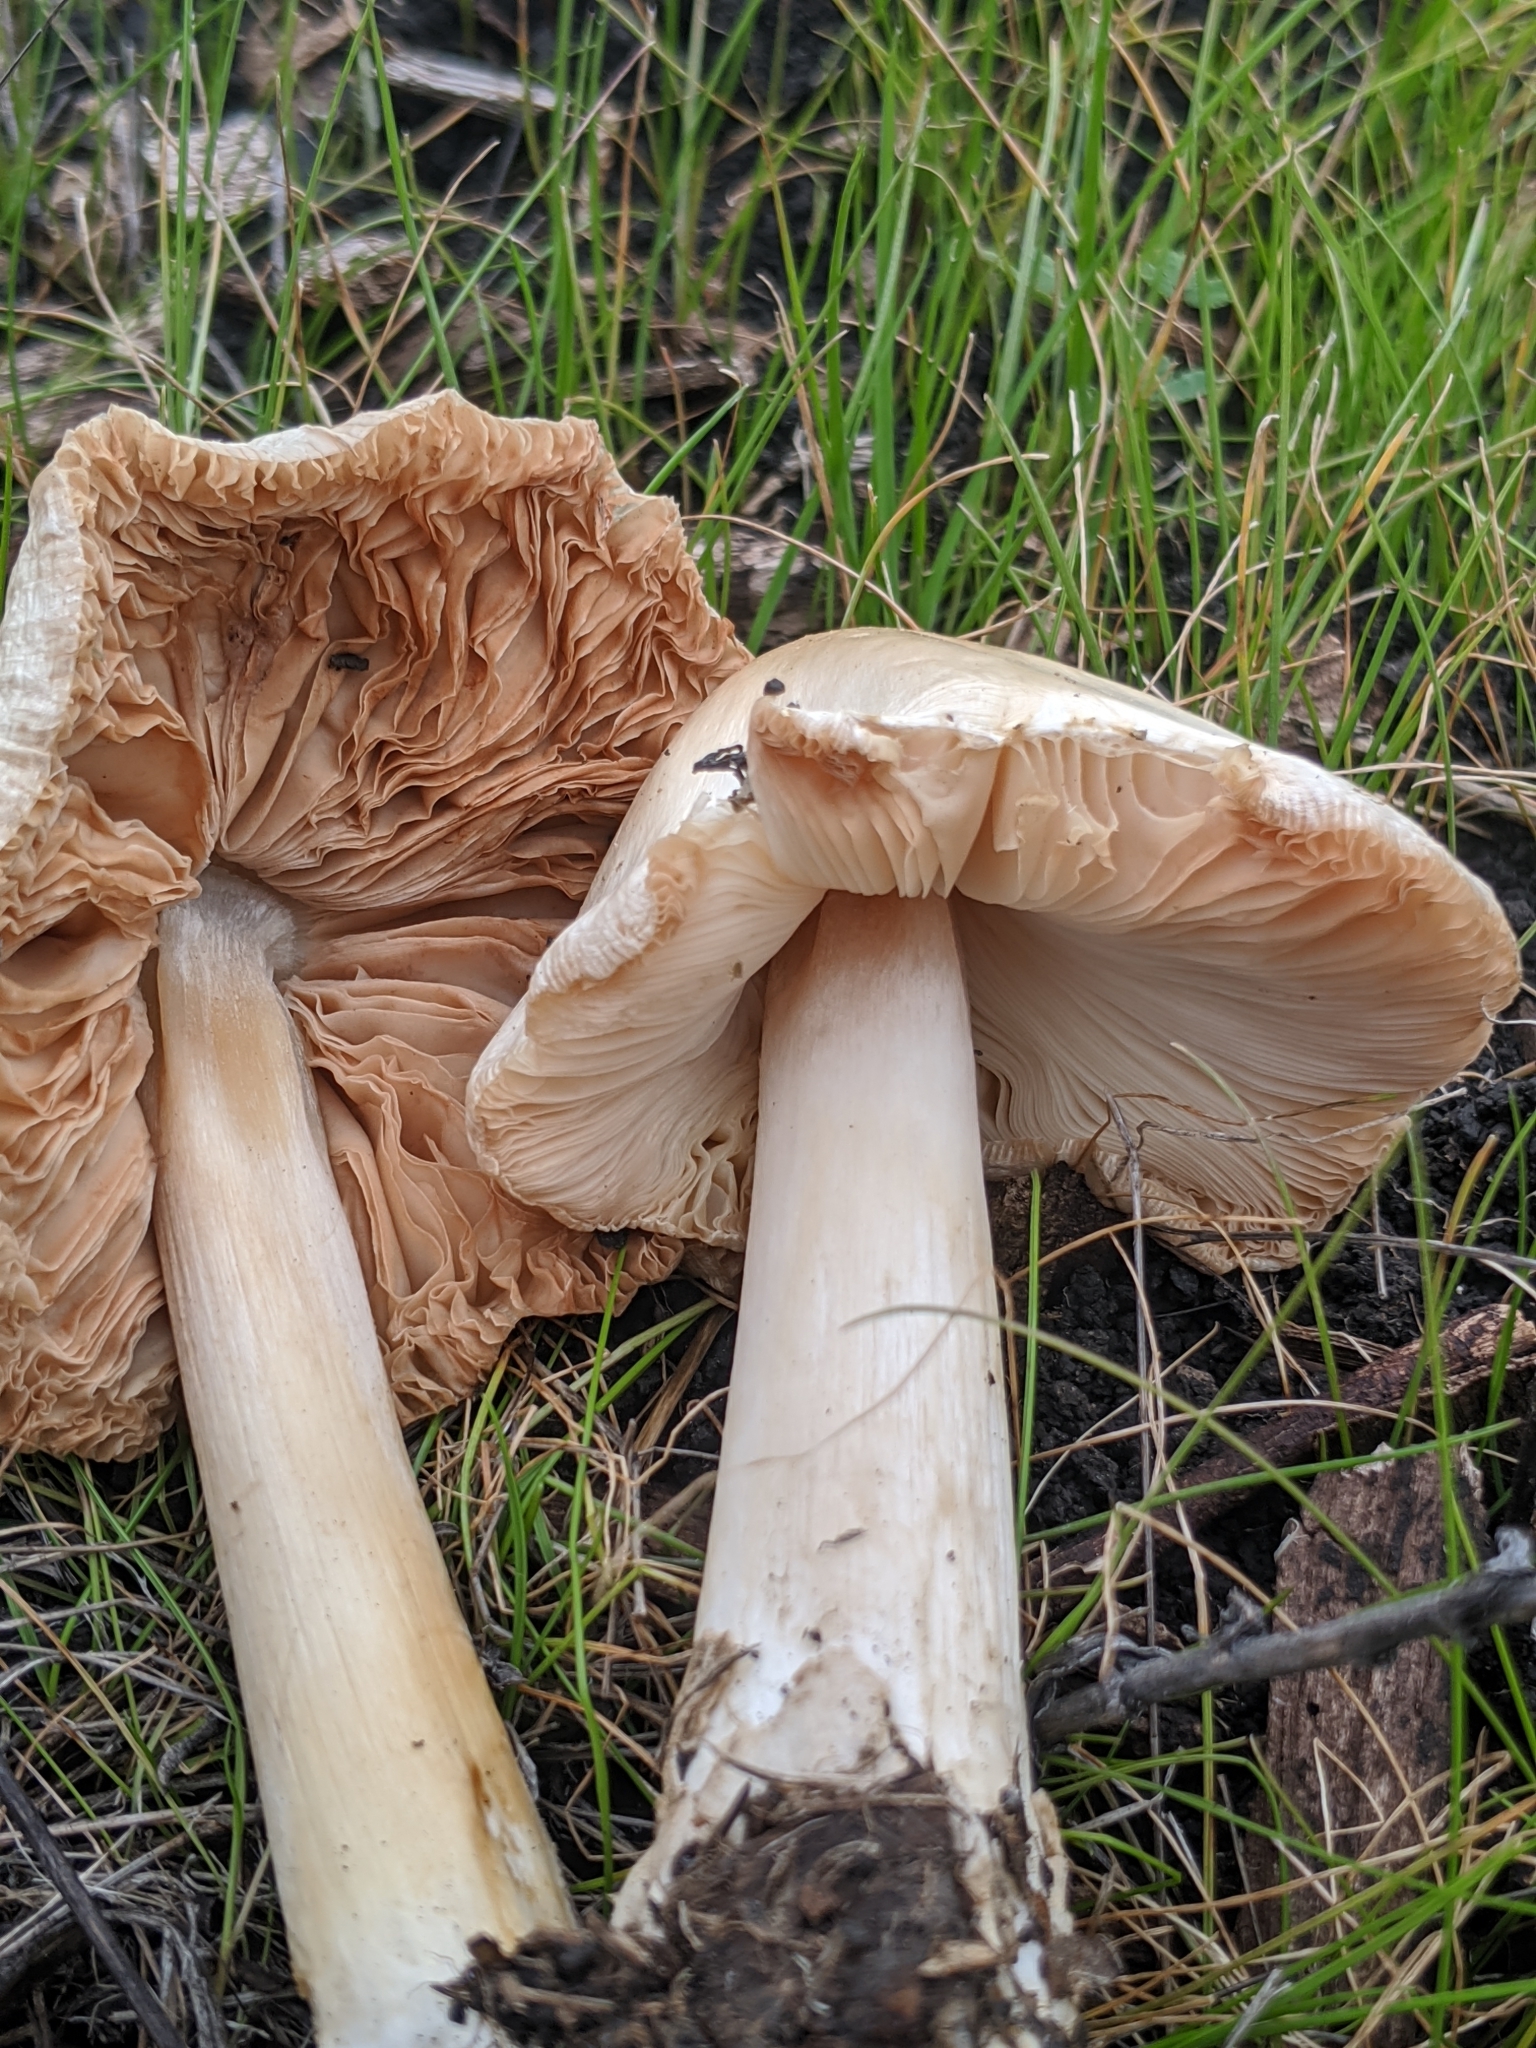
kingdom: Fungi
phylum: Basidiomycota
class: Agaricomycetes
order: Agaricales
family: Pluteaceae
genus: Volvopluteus
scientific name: Volvopluteus gloiocephalus
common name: Stubble rosegill
